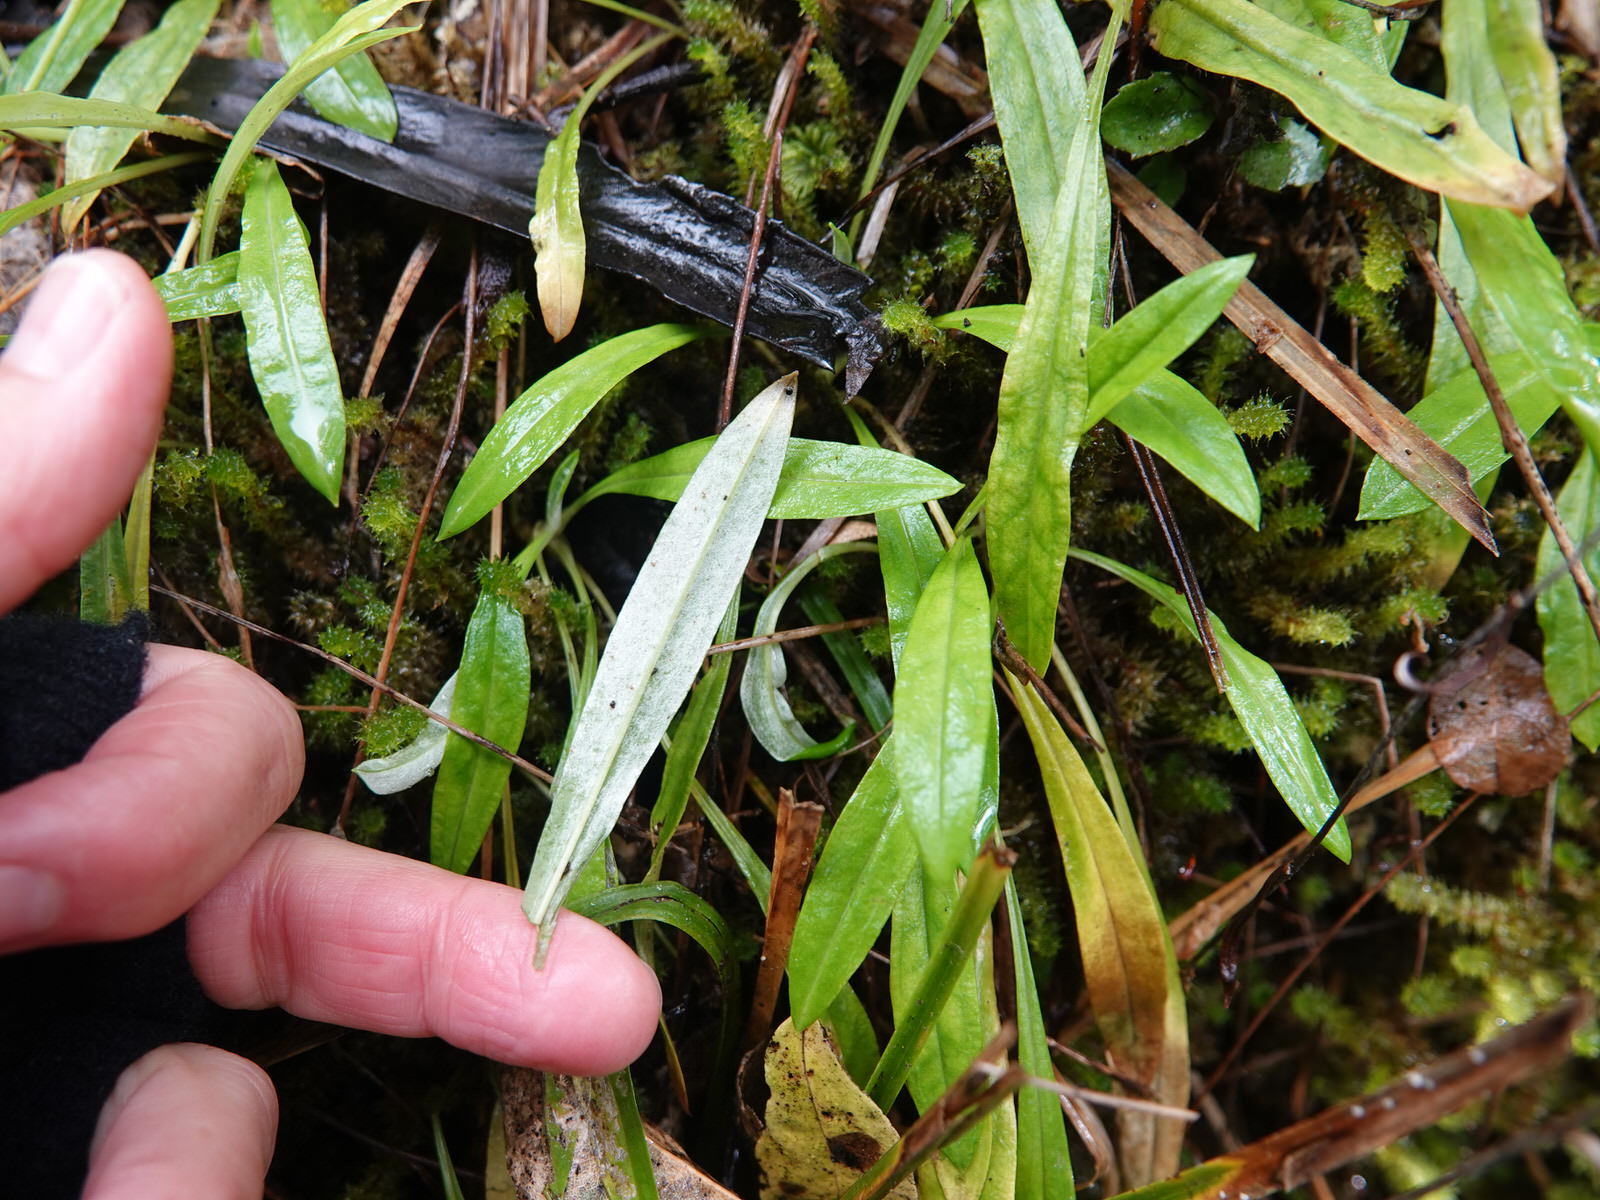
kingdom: Plantae
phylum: Tracheophyta
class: Magnoliopsida
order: Asterales
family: Asteraceae
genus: Euchiton
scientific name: Euchiton japonicus
